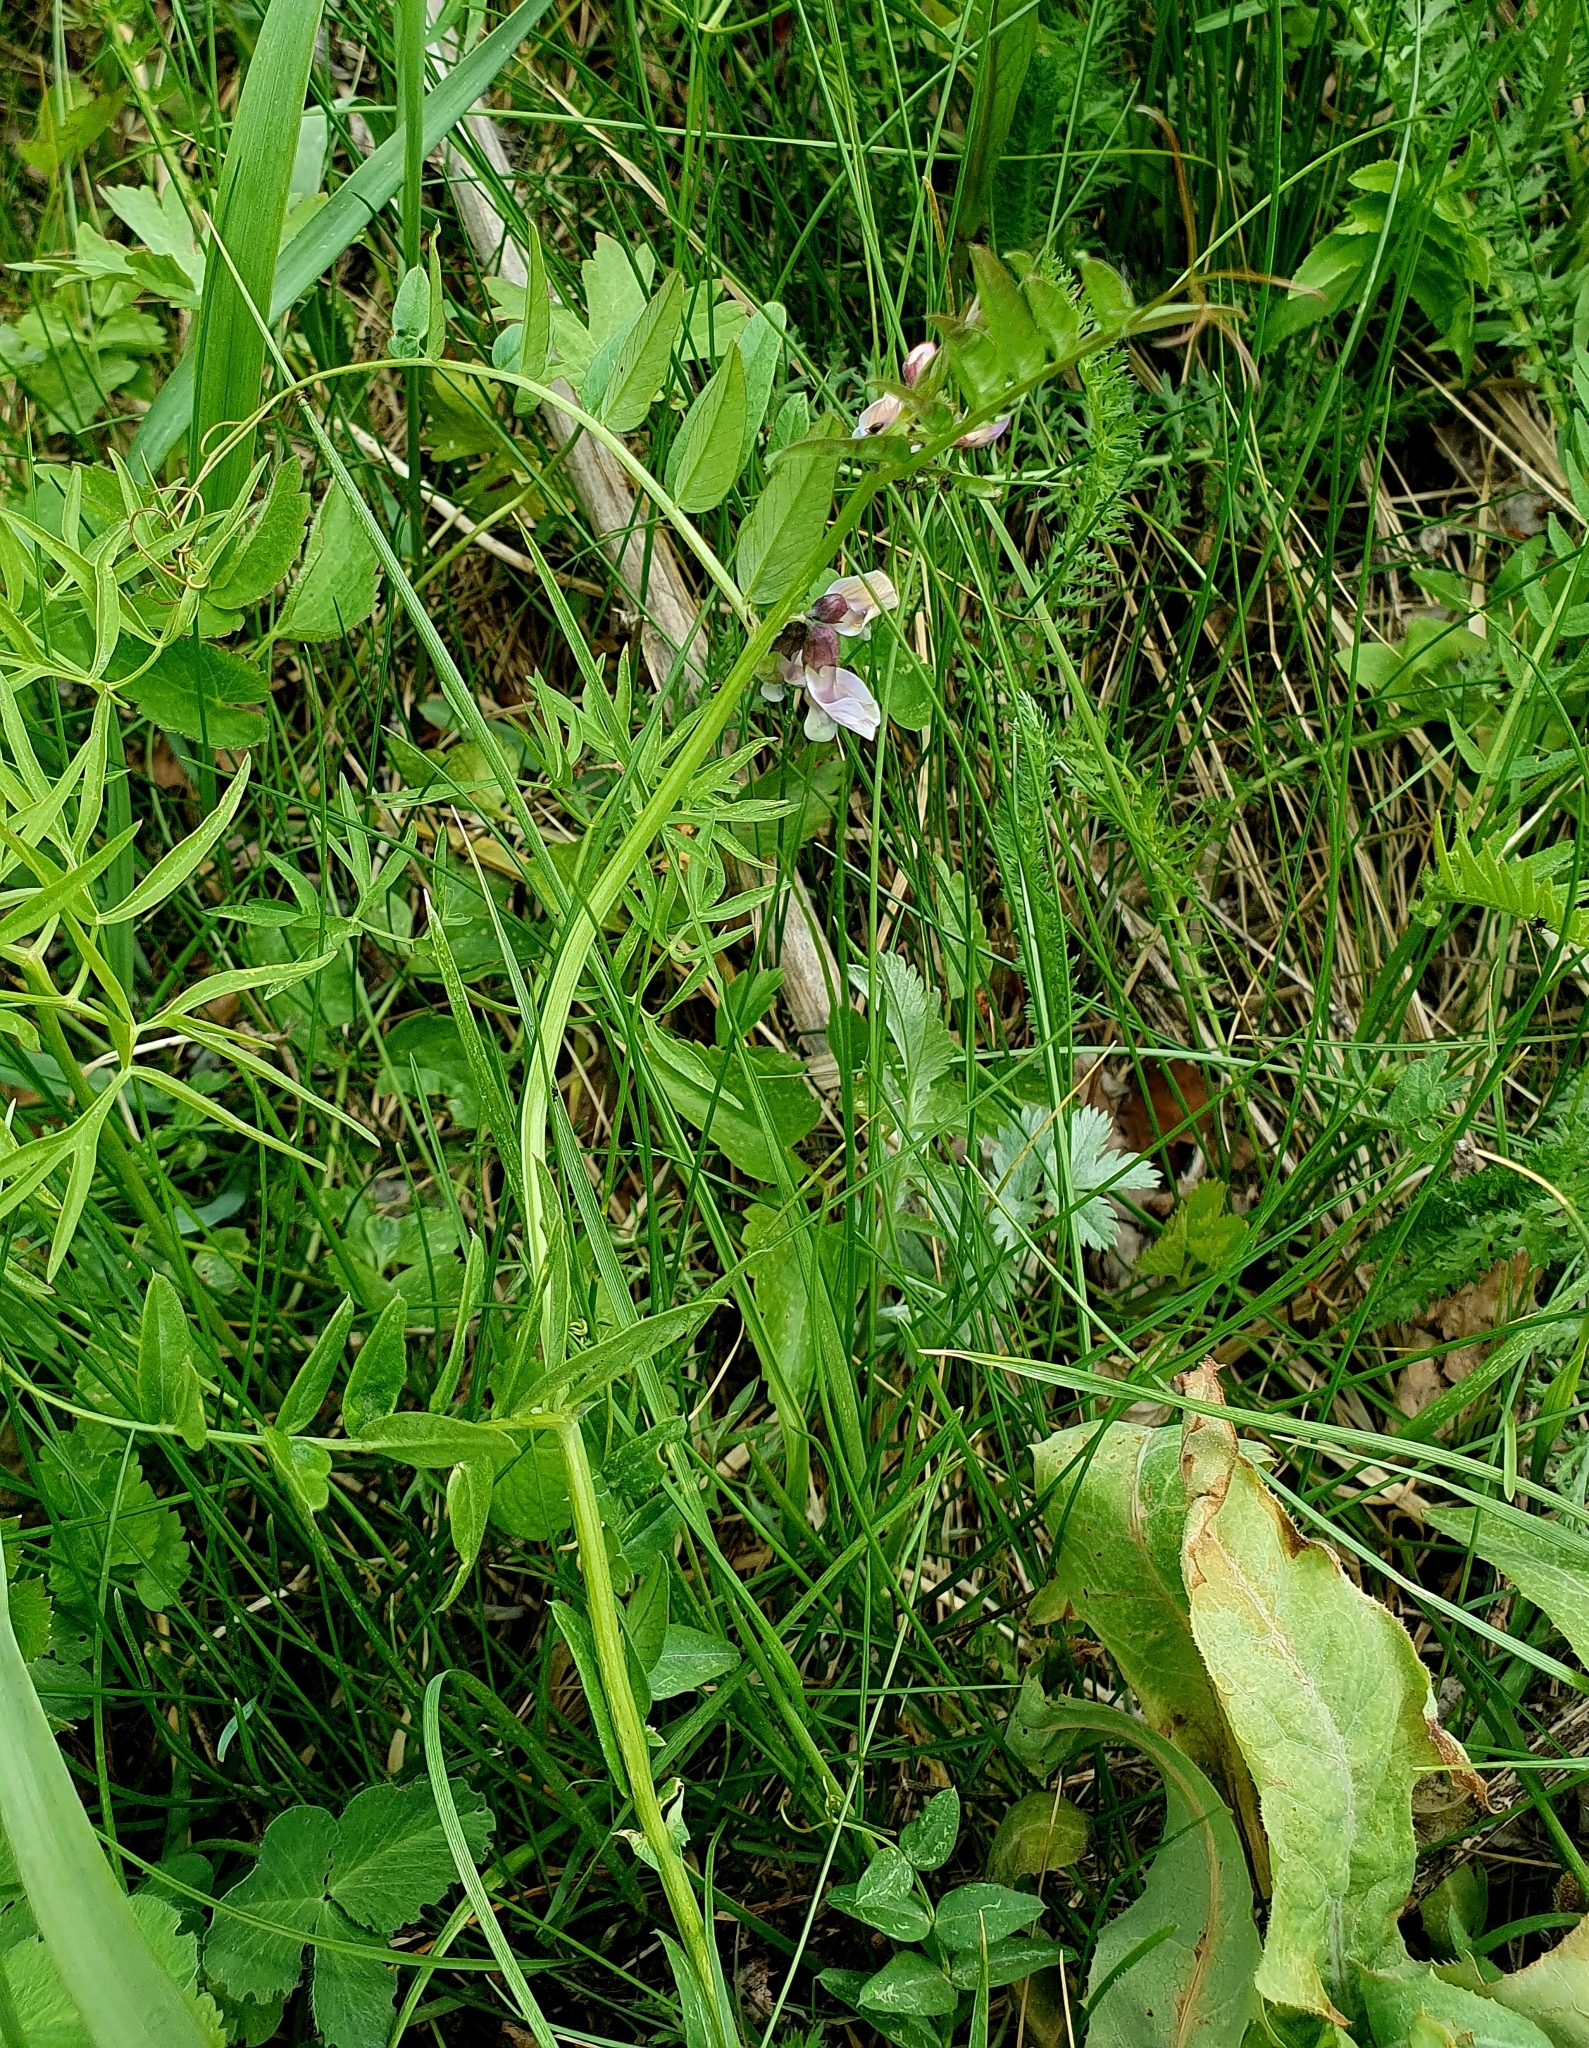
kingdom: Plantae
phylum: Tracheophyta
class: Magnoliopsida
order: Fabales
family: Fabaceae
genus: Vicia
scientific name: Vicia sepium
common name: Bush vetch
